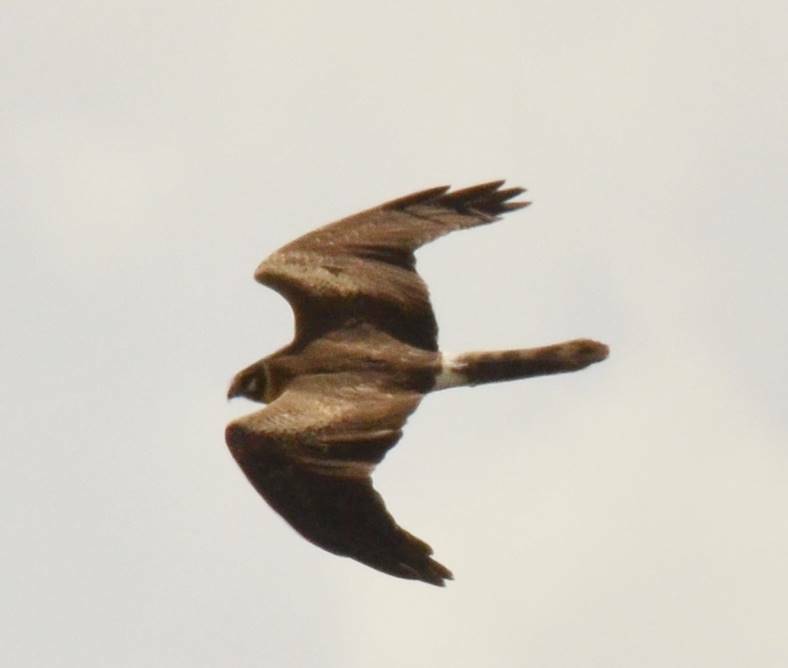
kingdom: Animalia
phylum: Chordata
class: Aves
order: Accipitriformes
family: Accipitridae
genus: Circus
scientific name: Circus macrourus
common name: Pallid harrier
